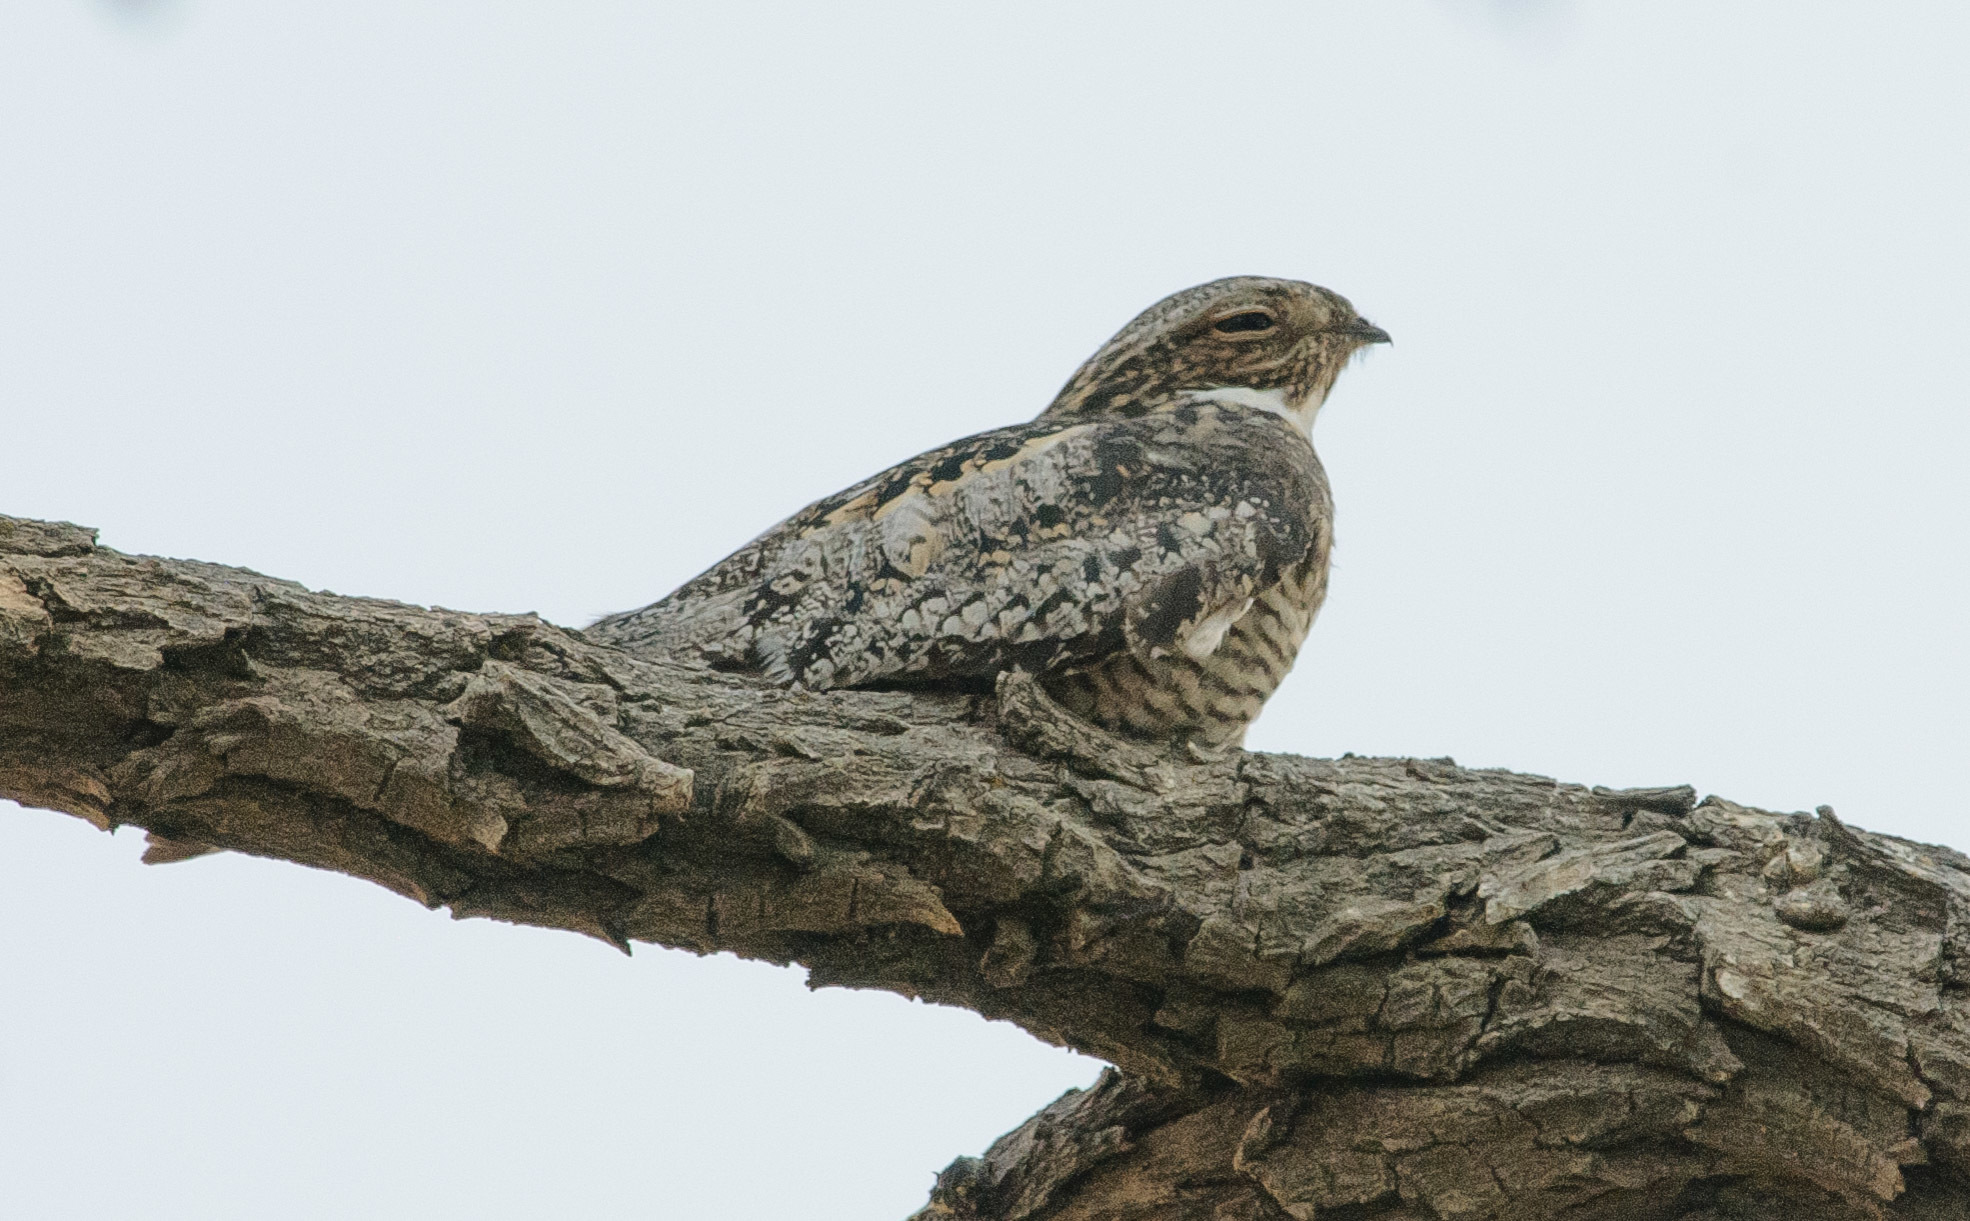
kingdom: Animalia
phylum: Chordata
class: Aves
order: Caprimulgiformes
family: Caprimulgidae
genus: Chordeiles
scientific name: Chordeiles minor
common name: Common nighthawk
